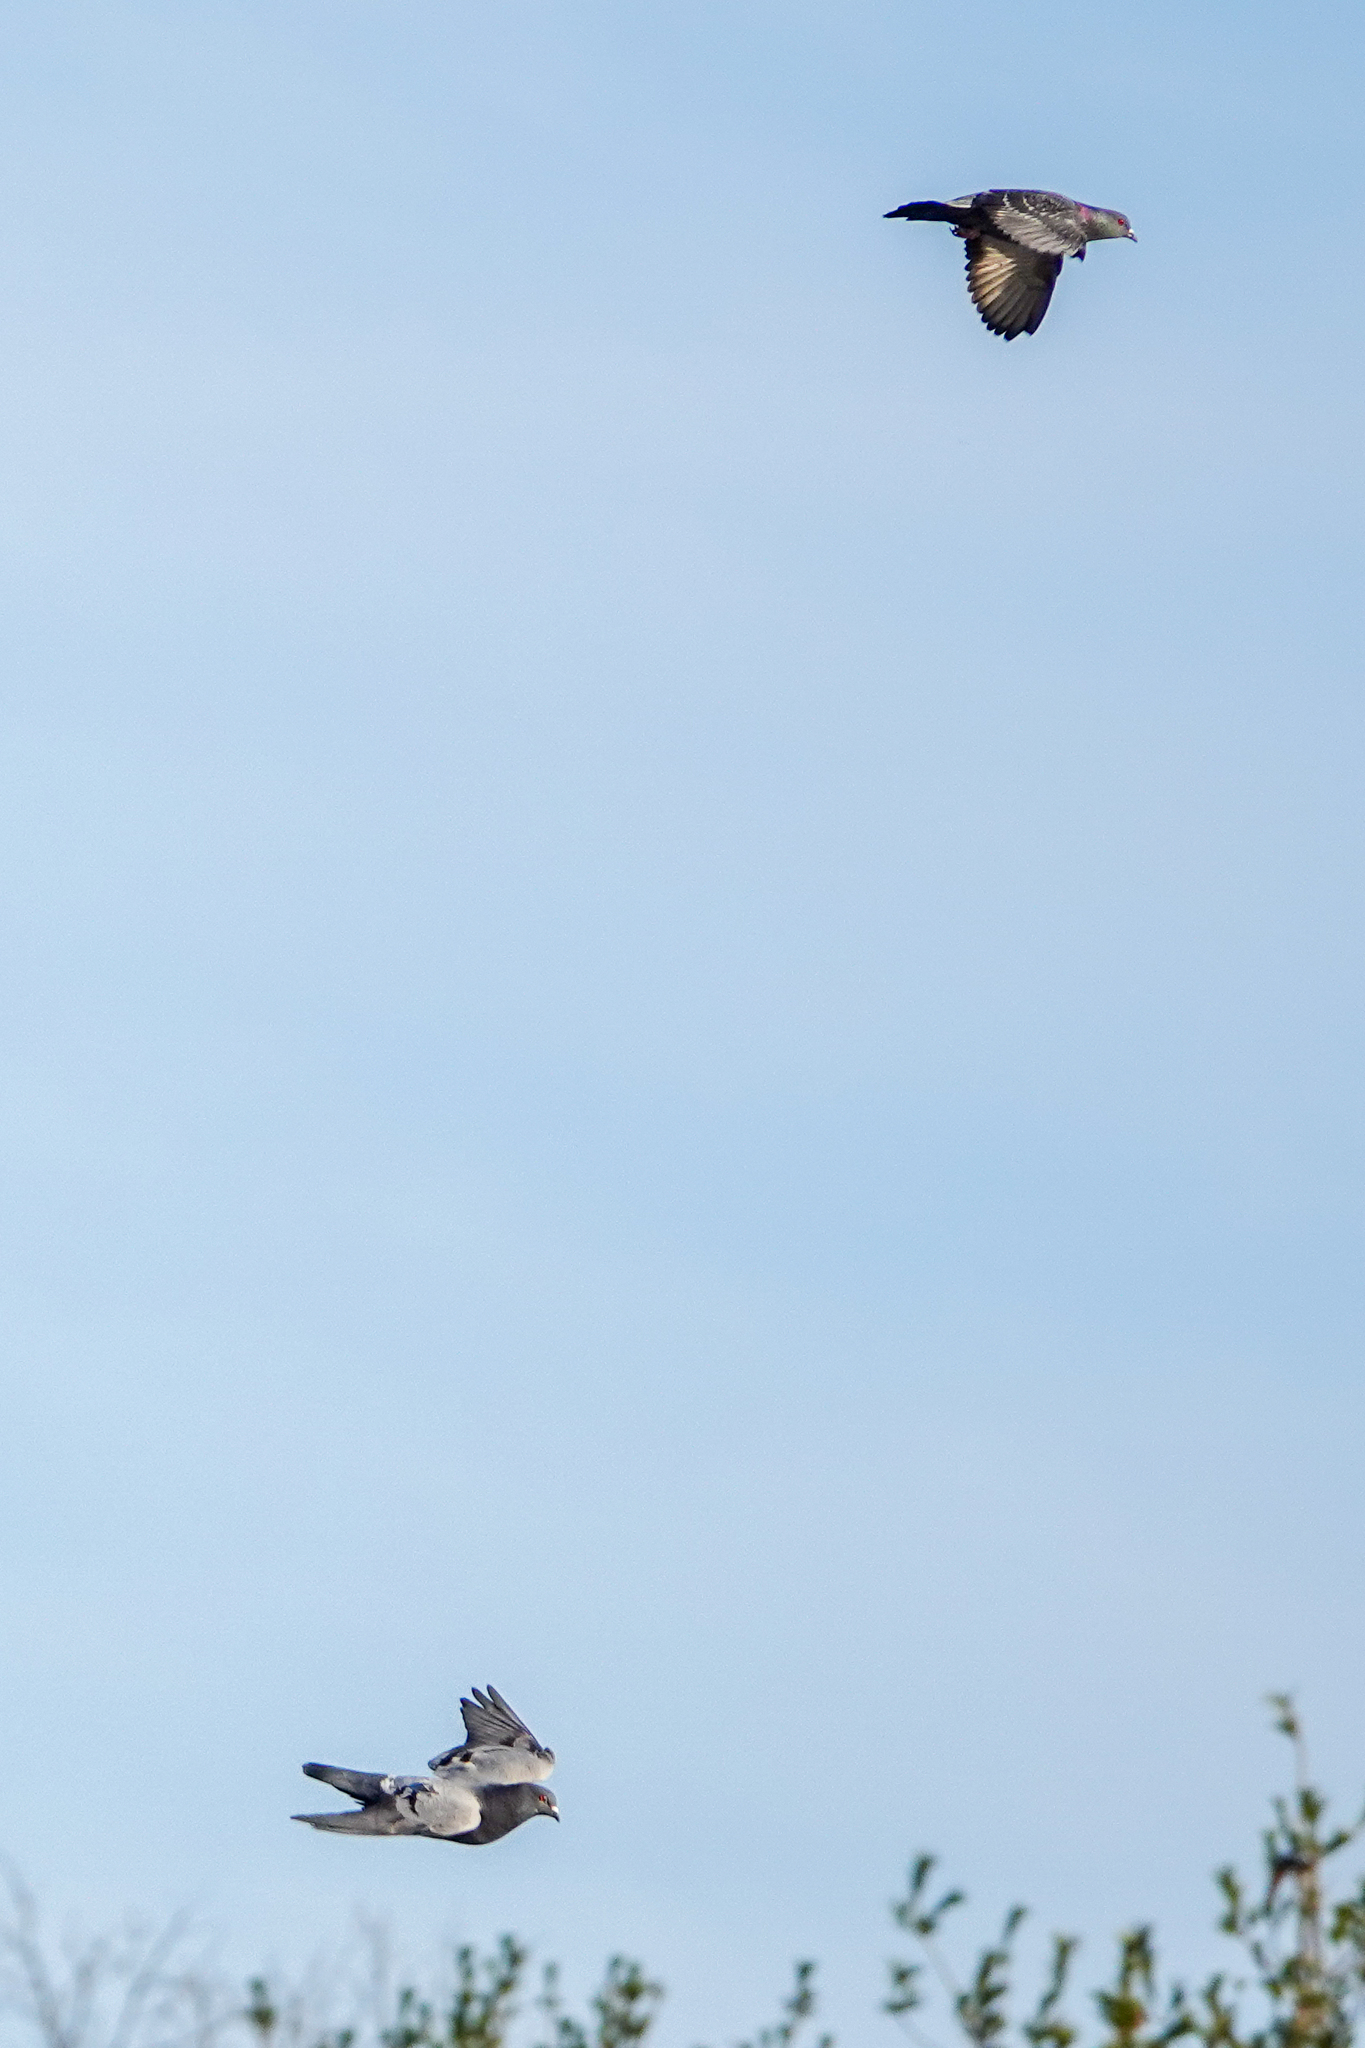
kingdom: Animalia
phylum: Chordata
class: Aves
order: Columbiformes
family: Columbidae
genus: Columba
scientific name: Columba livia
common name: Rock pigeon
